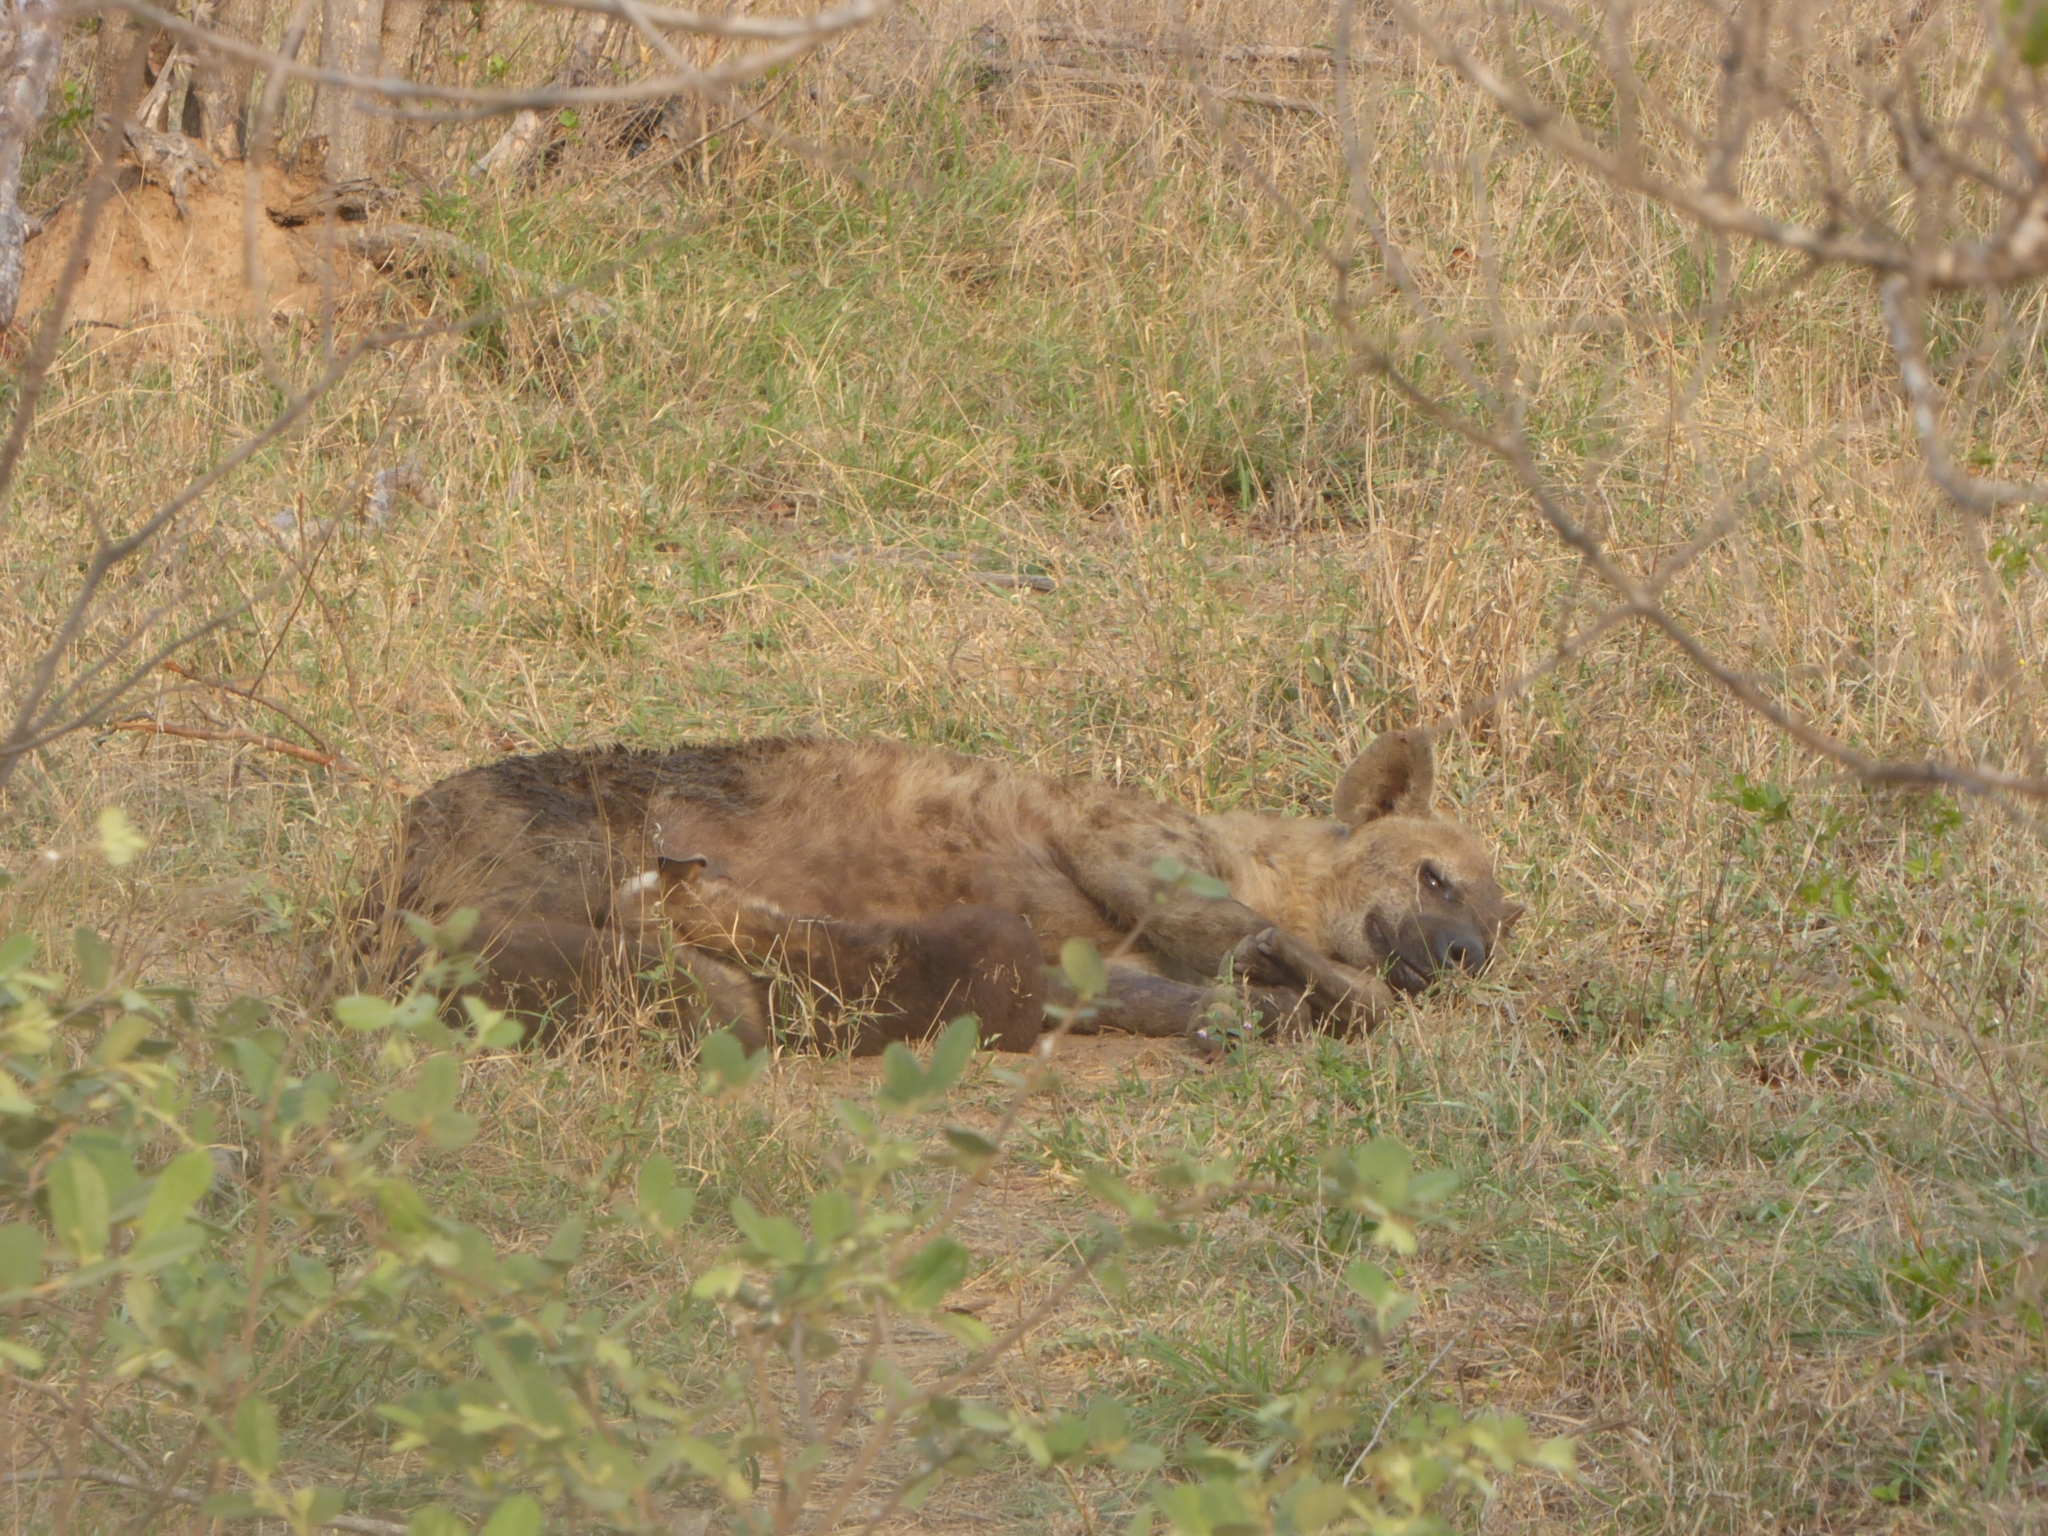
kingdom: Animalia
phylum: Chordata
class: Mammalia
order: Carnivora
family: Hyaenidae
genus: Crocuta
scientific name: Crocuta crocuta
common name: Spotted hyaena
